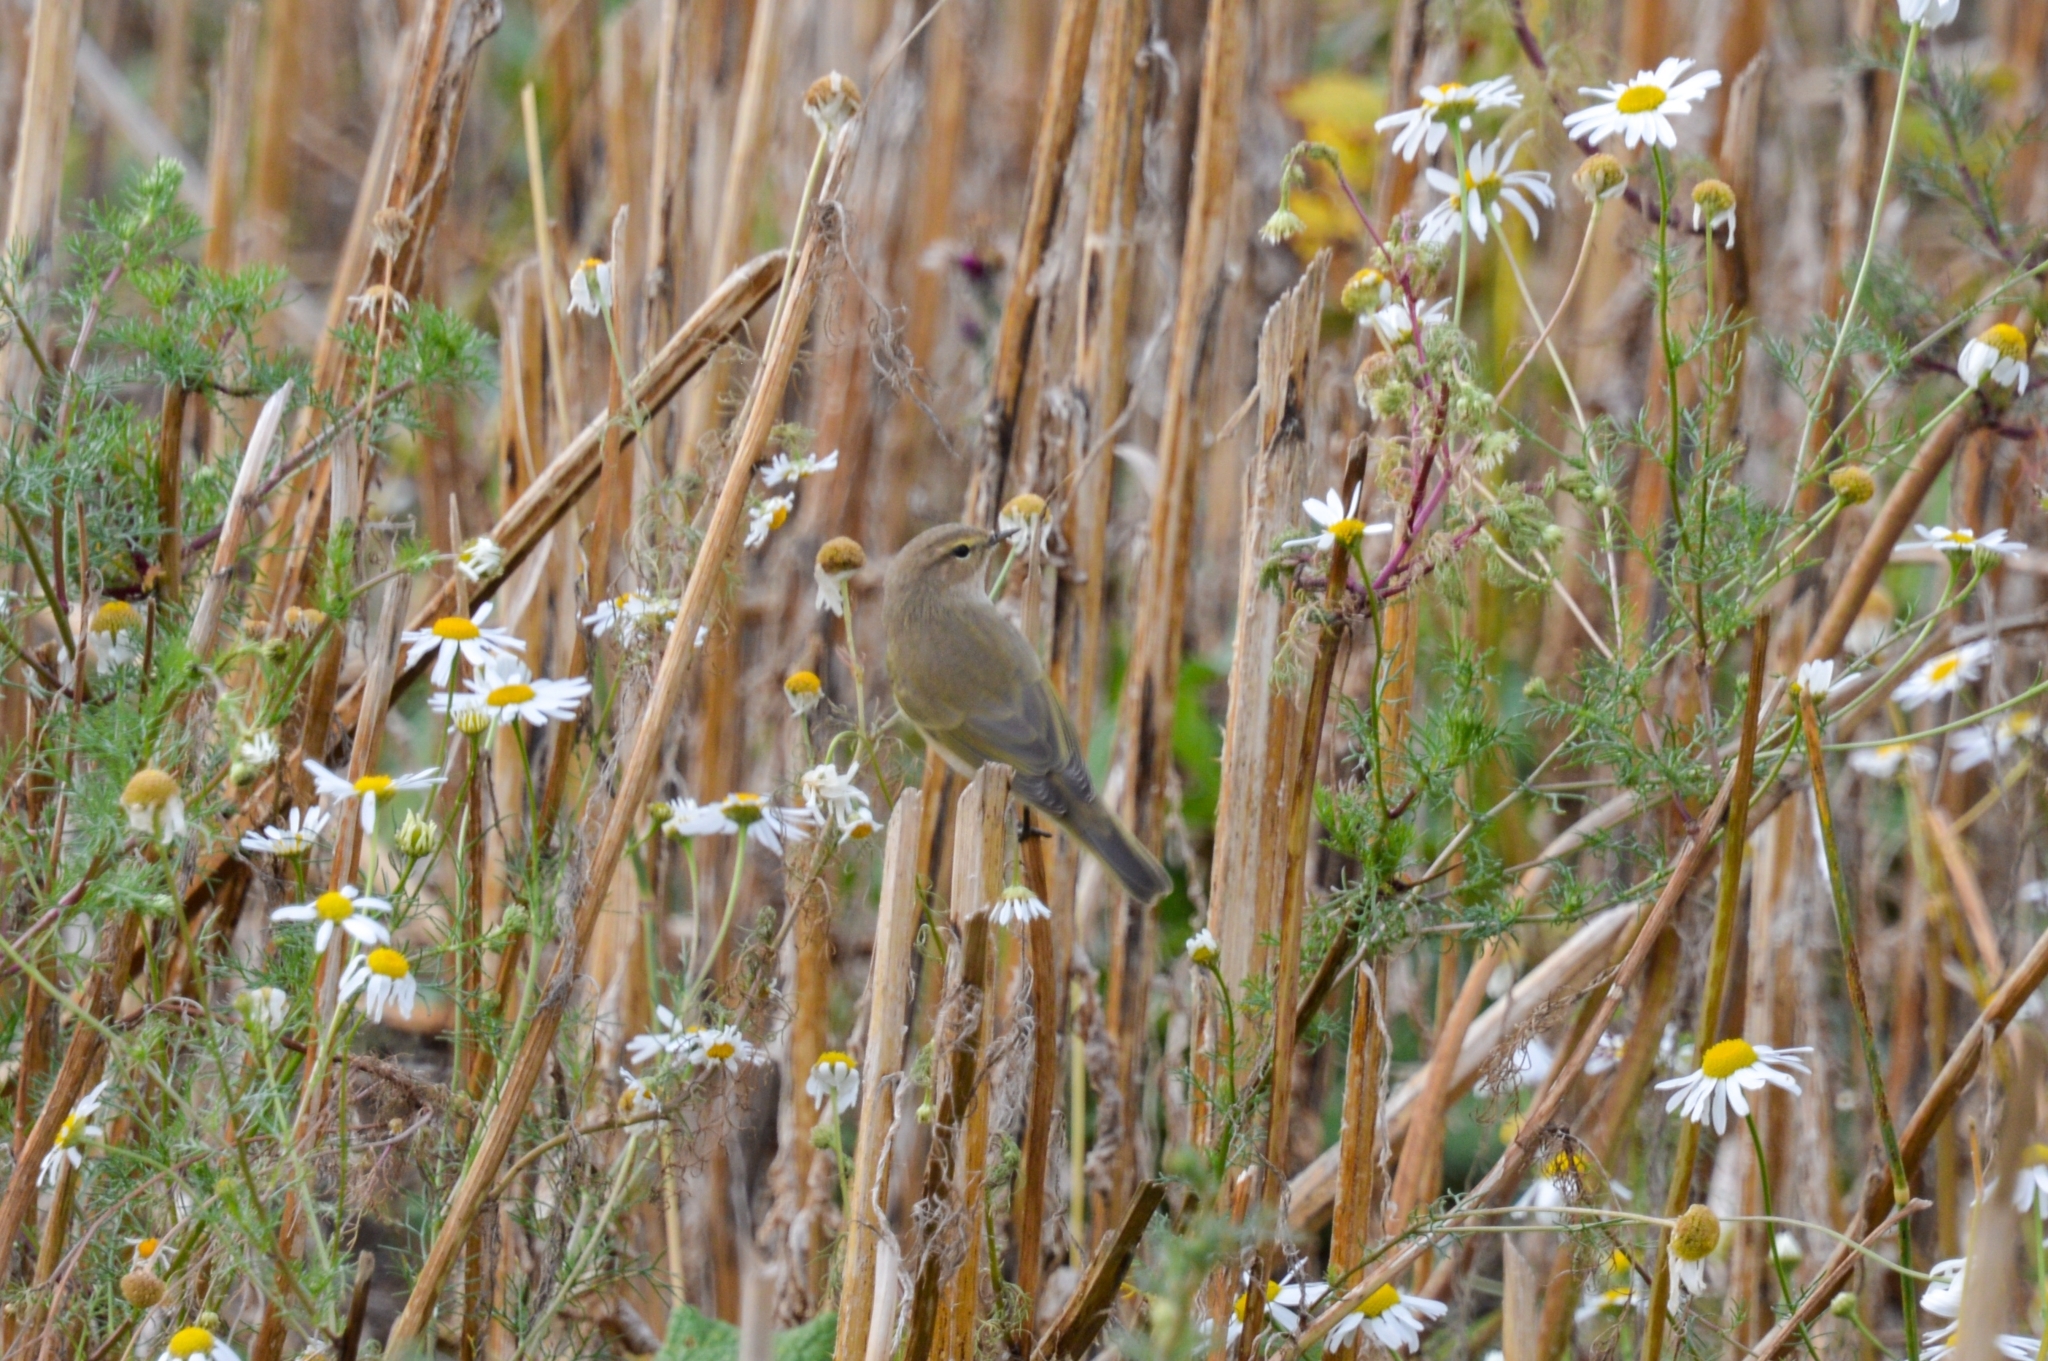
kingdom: Animalia
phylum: Chordata
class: Aves
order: Passeriformes
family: Phylloscopidae
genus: Phylloscopus
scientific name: Phylloscopus collybita
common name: Common chiffchaff
